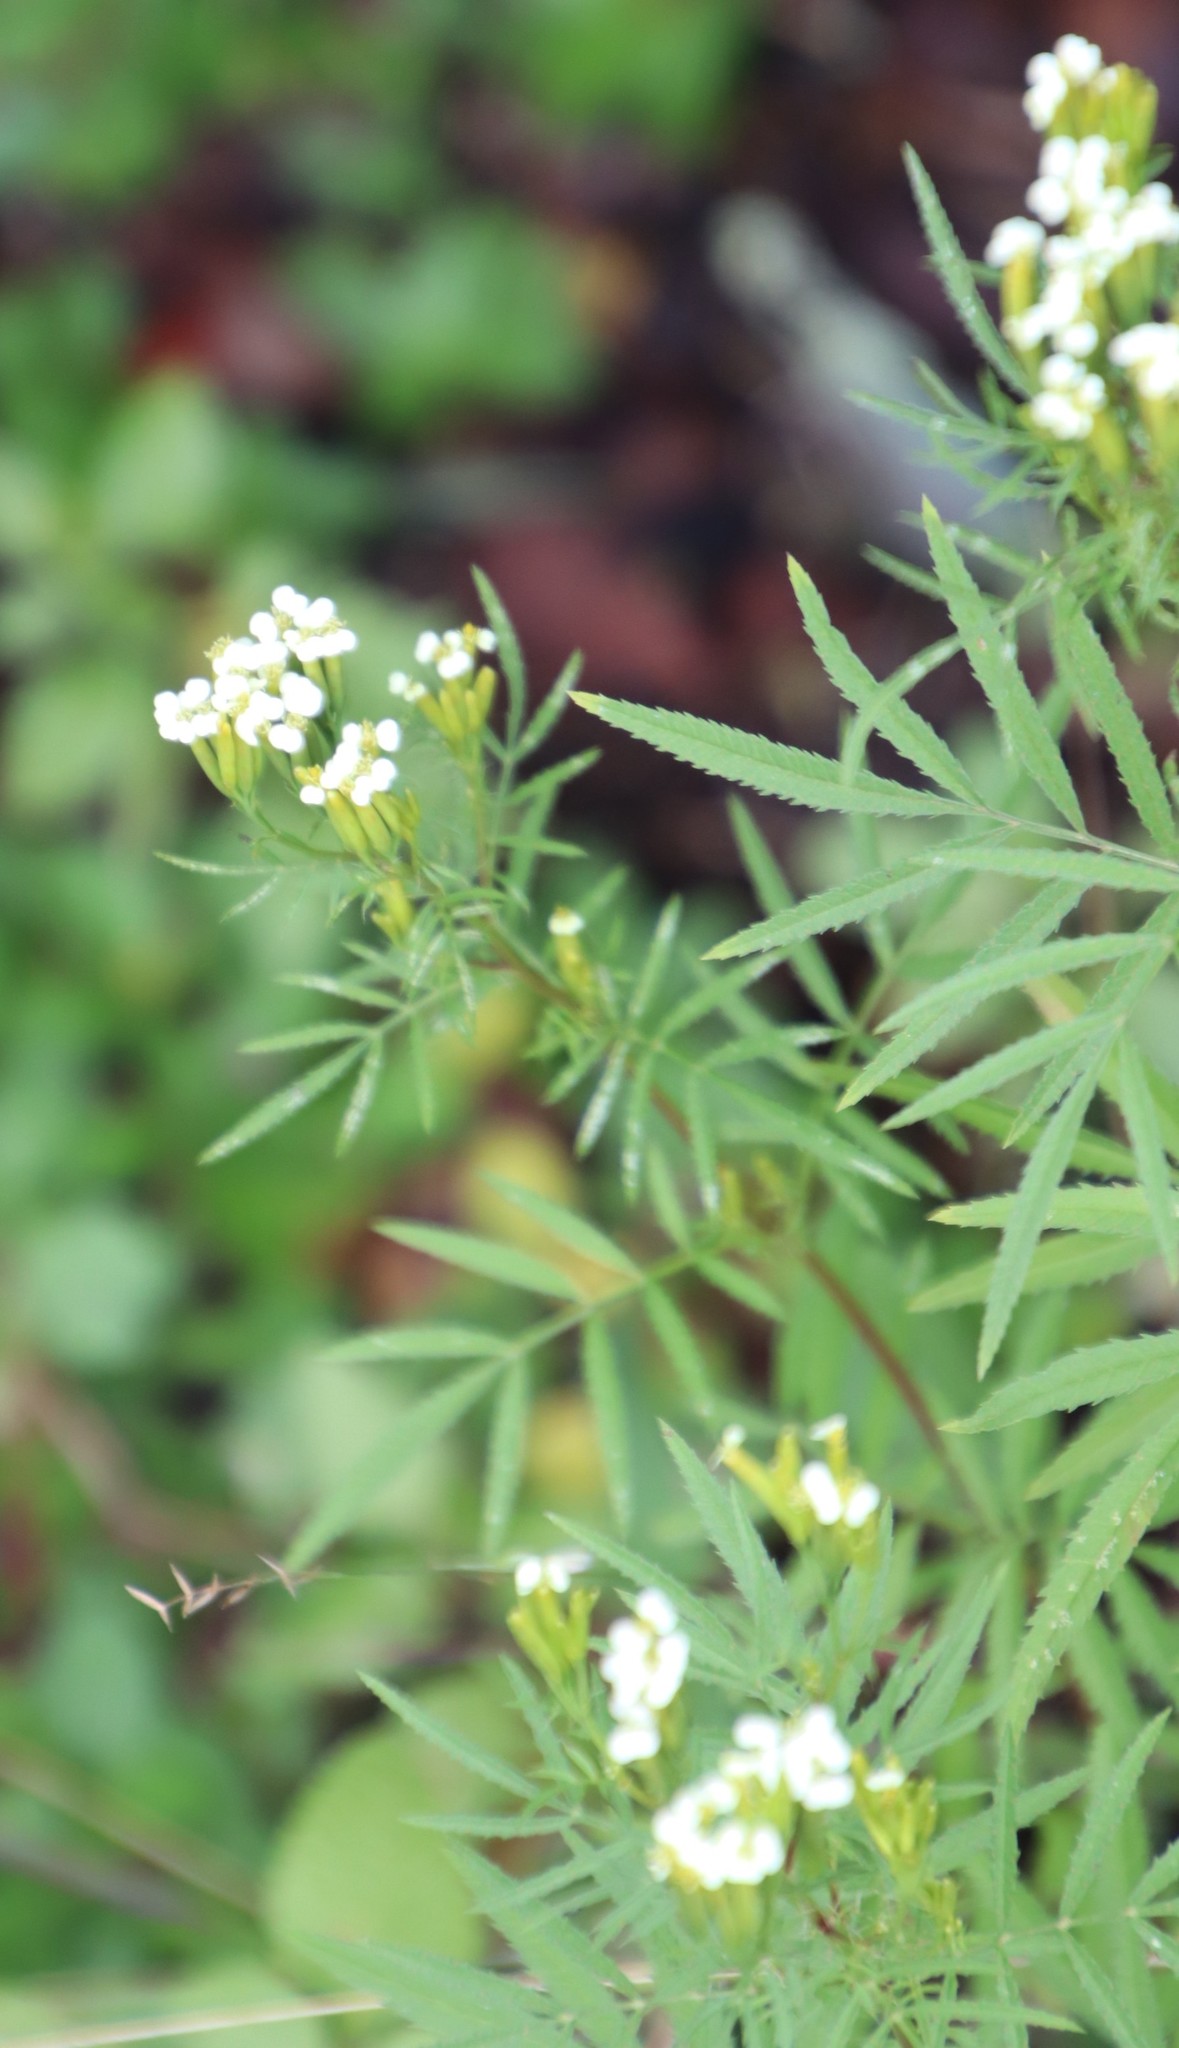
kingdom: Plantae
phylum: Tracheophyta
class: Magnoliopsida
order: Asterales
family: Asteraceae
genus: Tagetes
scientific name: Tagetes minuta
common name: Muster john henry
